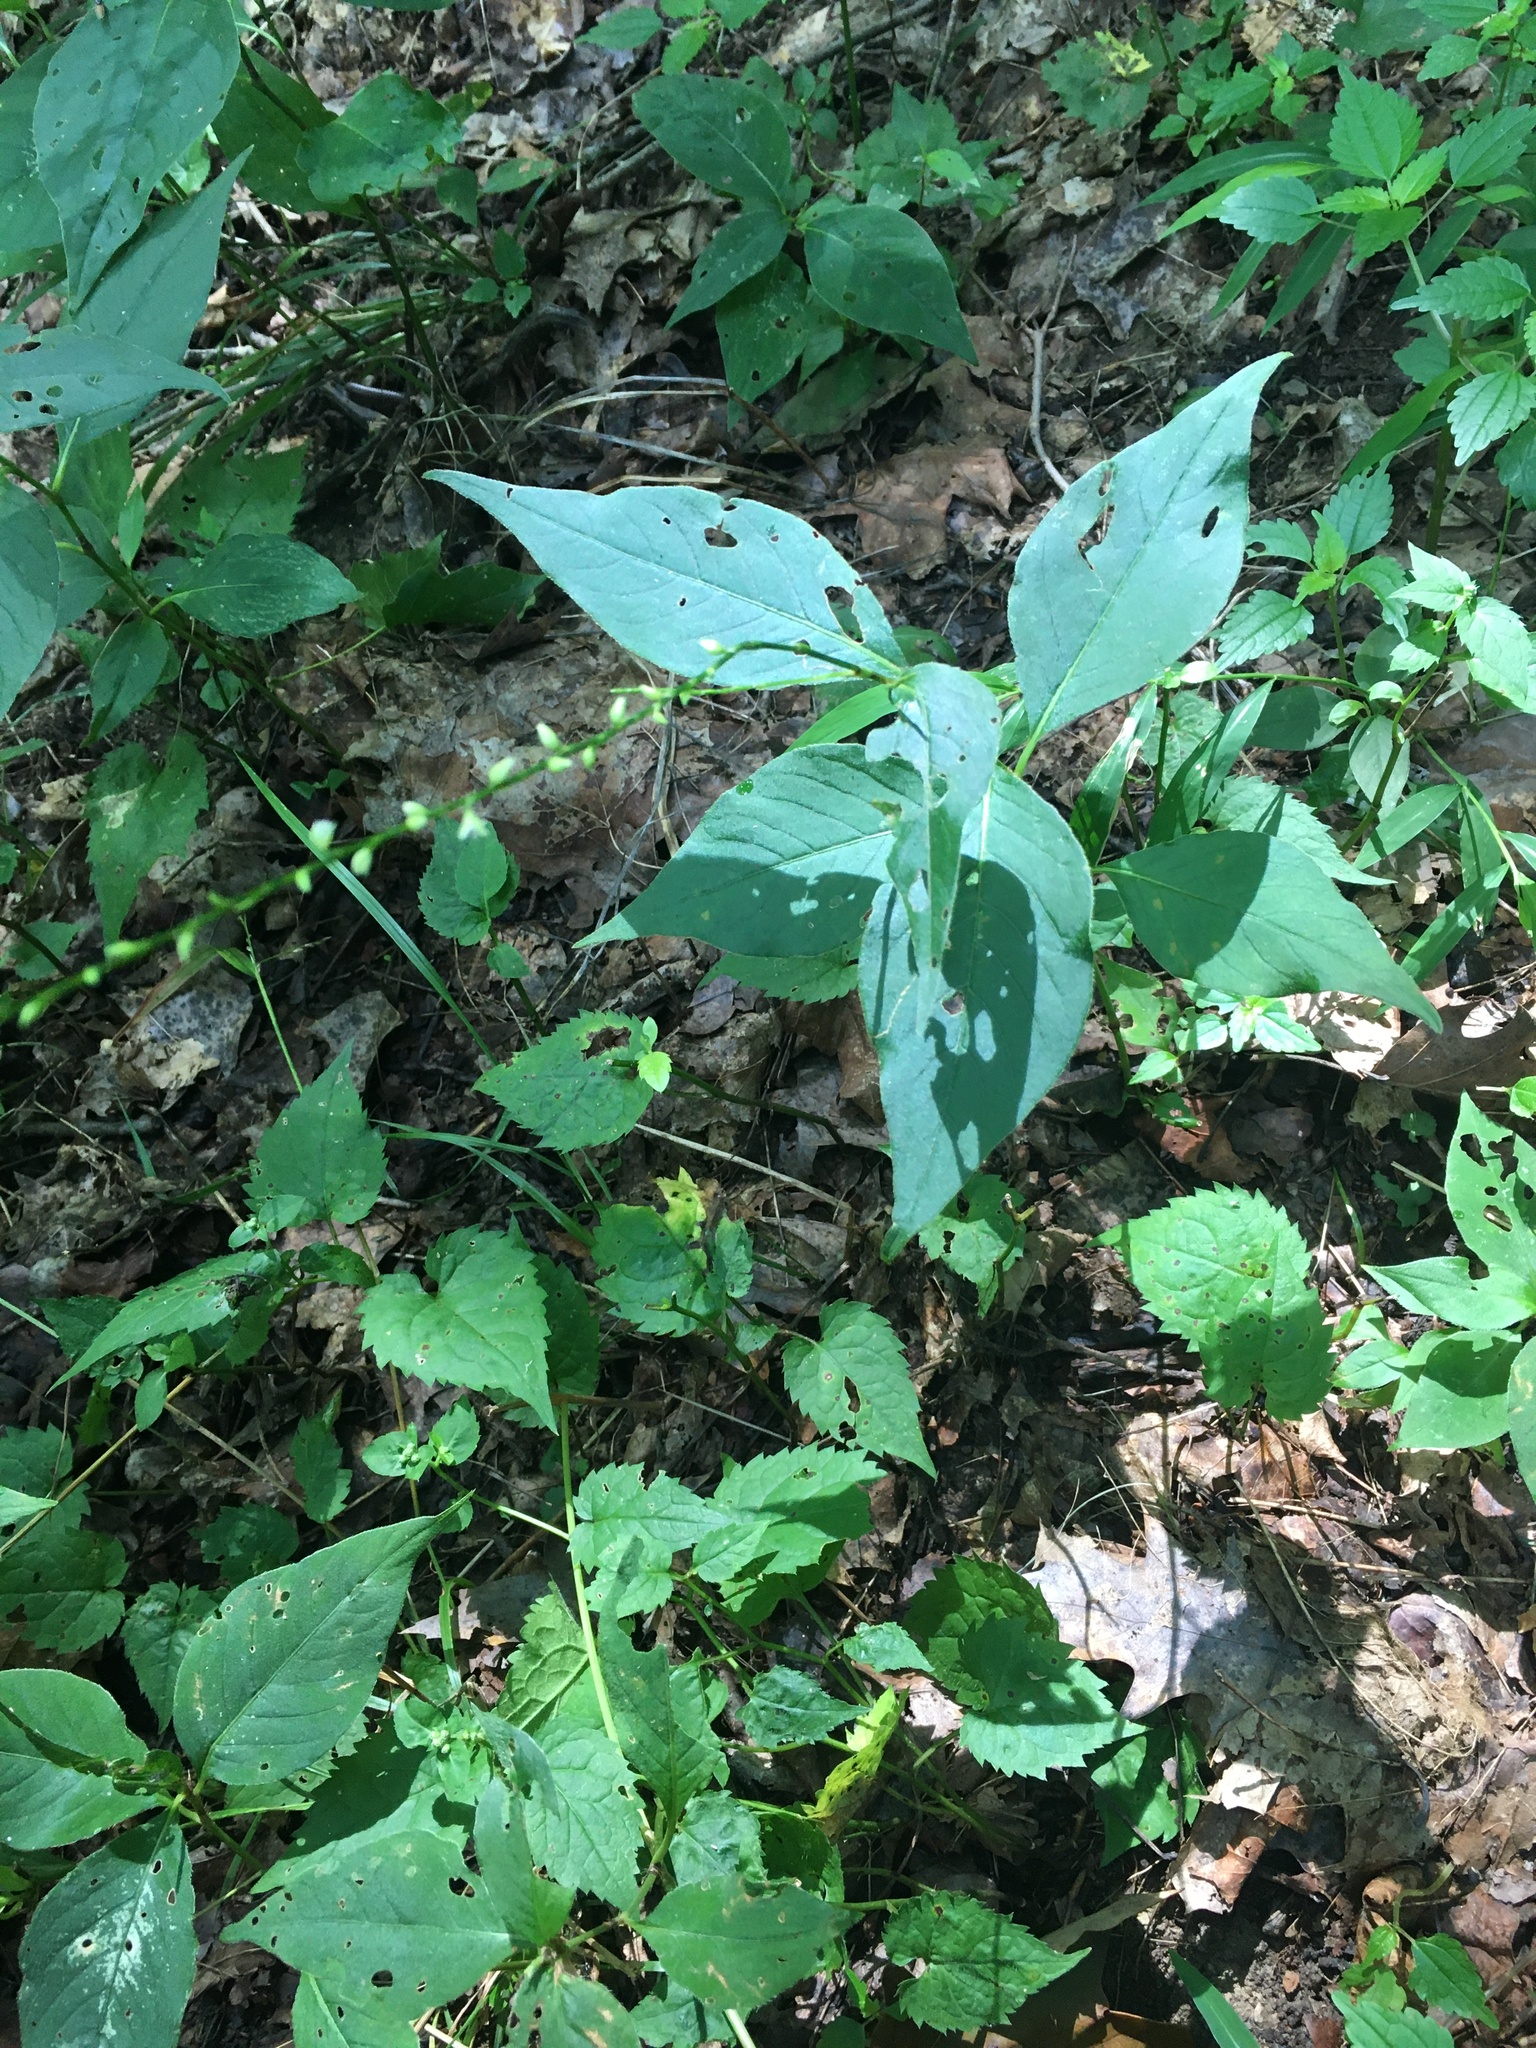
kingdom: Plantae
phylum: Tracheophyta
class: Magnoliopsida
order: Caryophyllales
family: Polygonaceae
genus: Persicaria
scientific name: Persicaria virginiana
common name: Jumpseed
